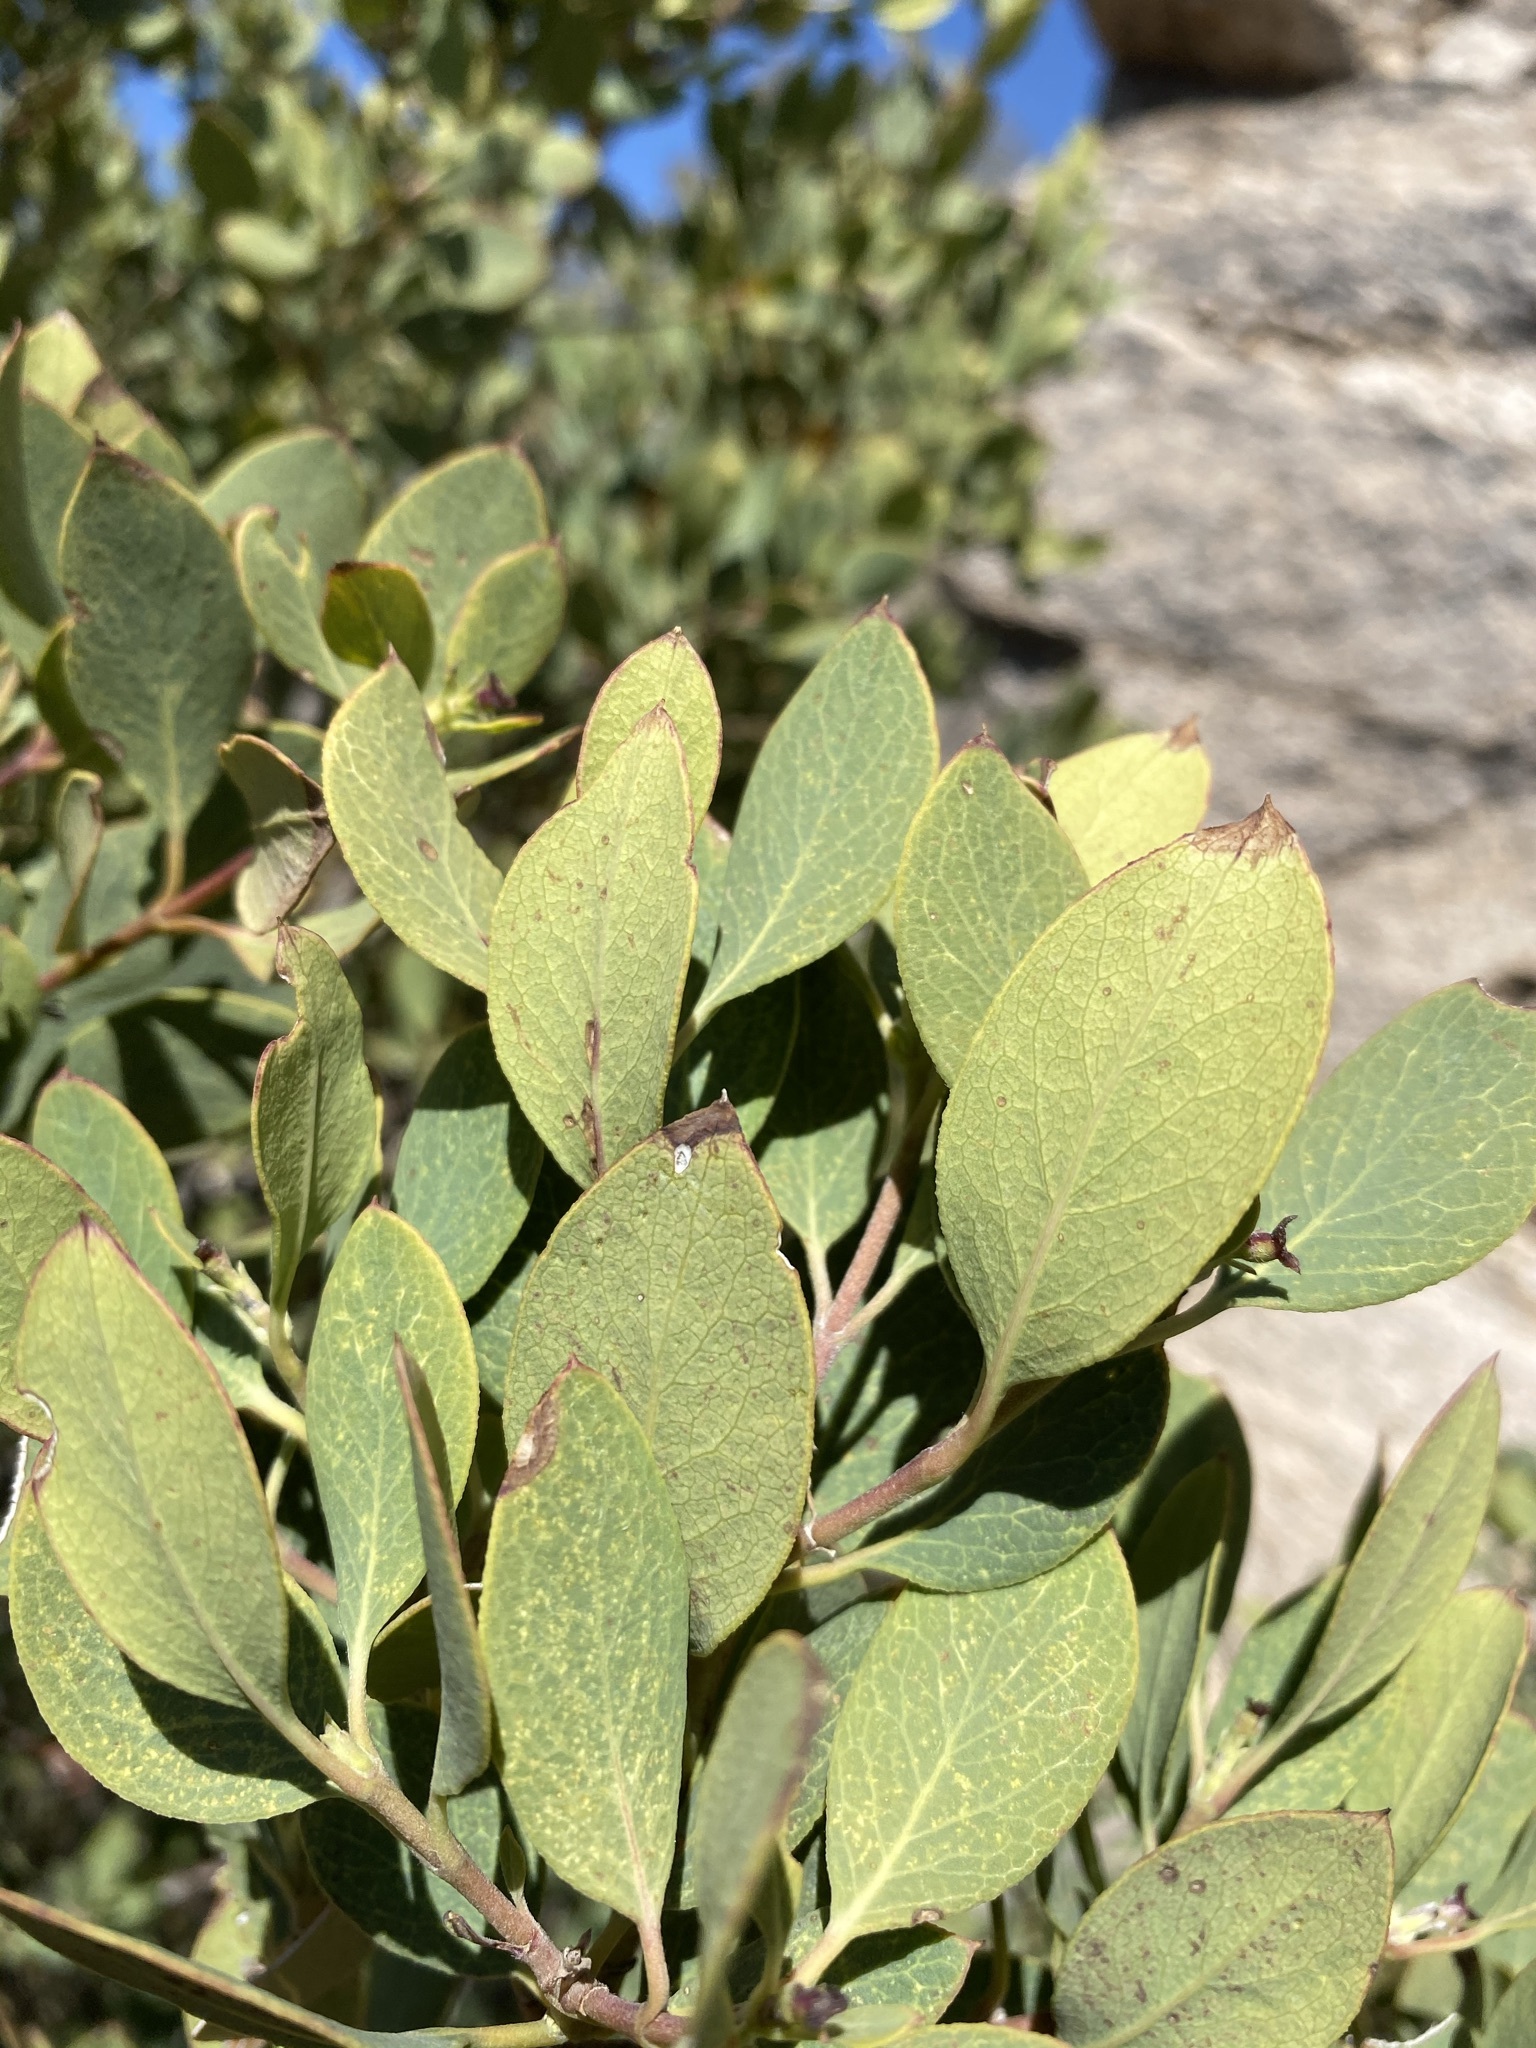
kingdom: Plantae
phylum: Tracheophyta
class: Magnoliopsida
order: Garryales
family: Garryaceae
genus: Garrya
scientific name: Garrya wrightii
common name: Wright's silktassel
